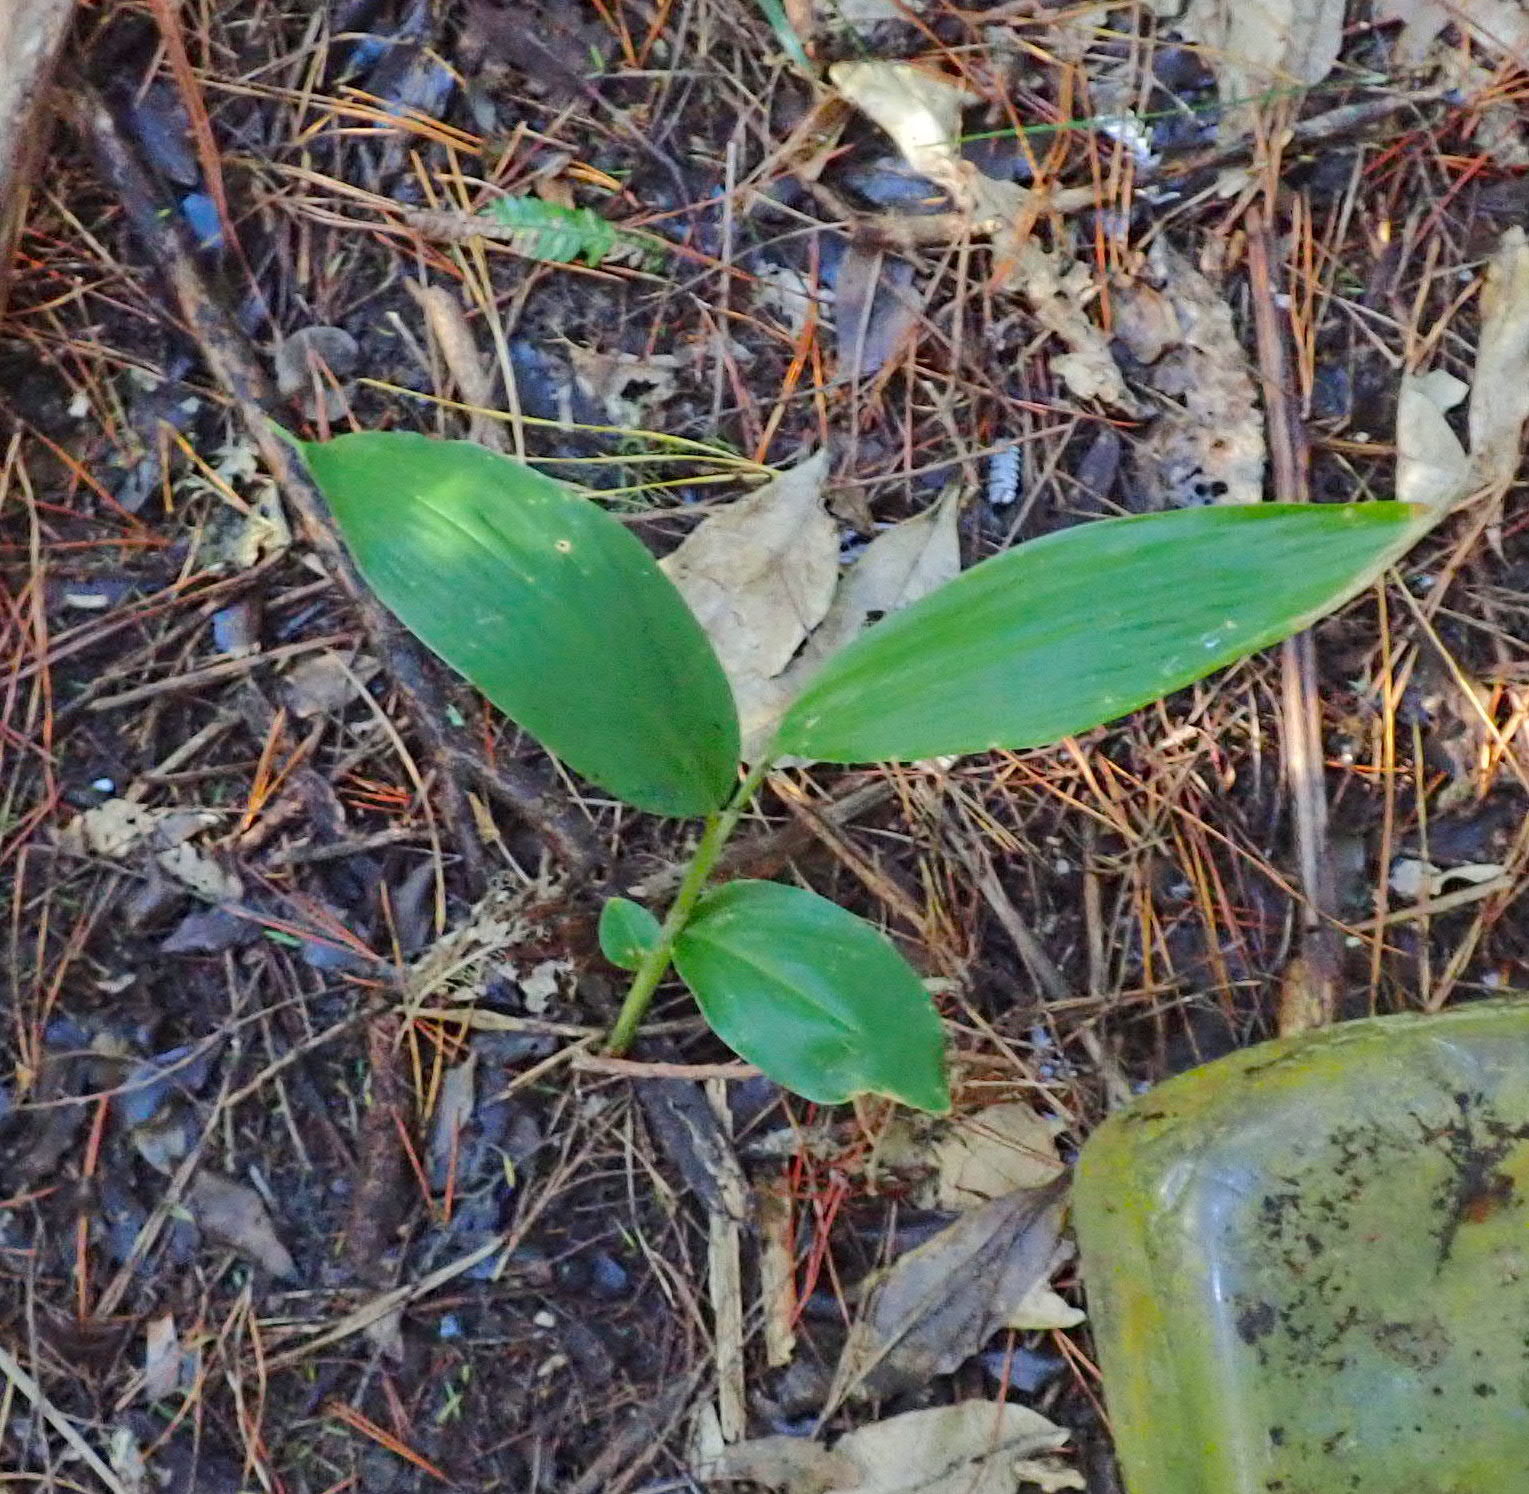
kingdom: Plantae
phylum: Tracheophyta
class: Liliopsida
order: Zingiberales
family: Zingiberaceae
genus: Hedychium
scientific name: Hedychium gardnerianum
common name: Himalayan ginger
